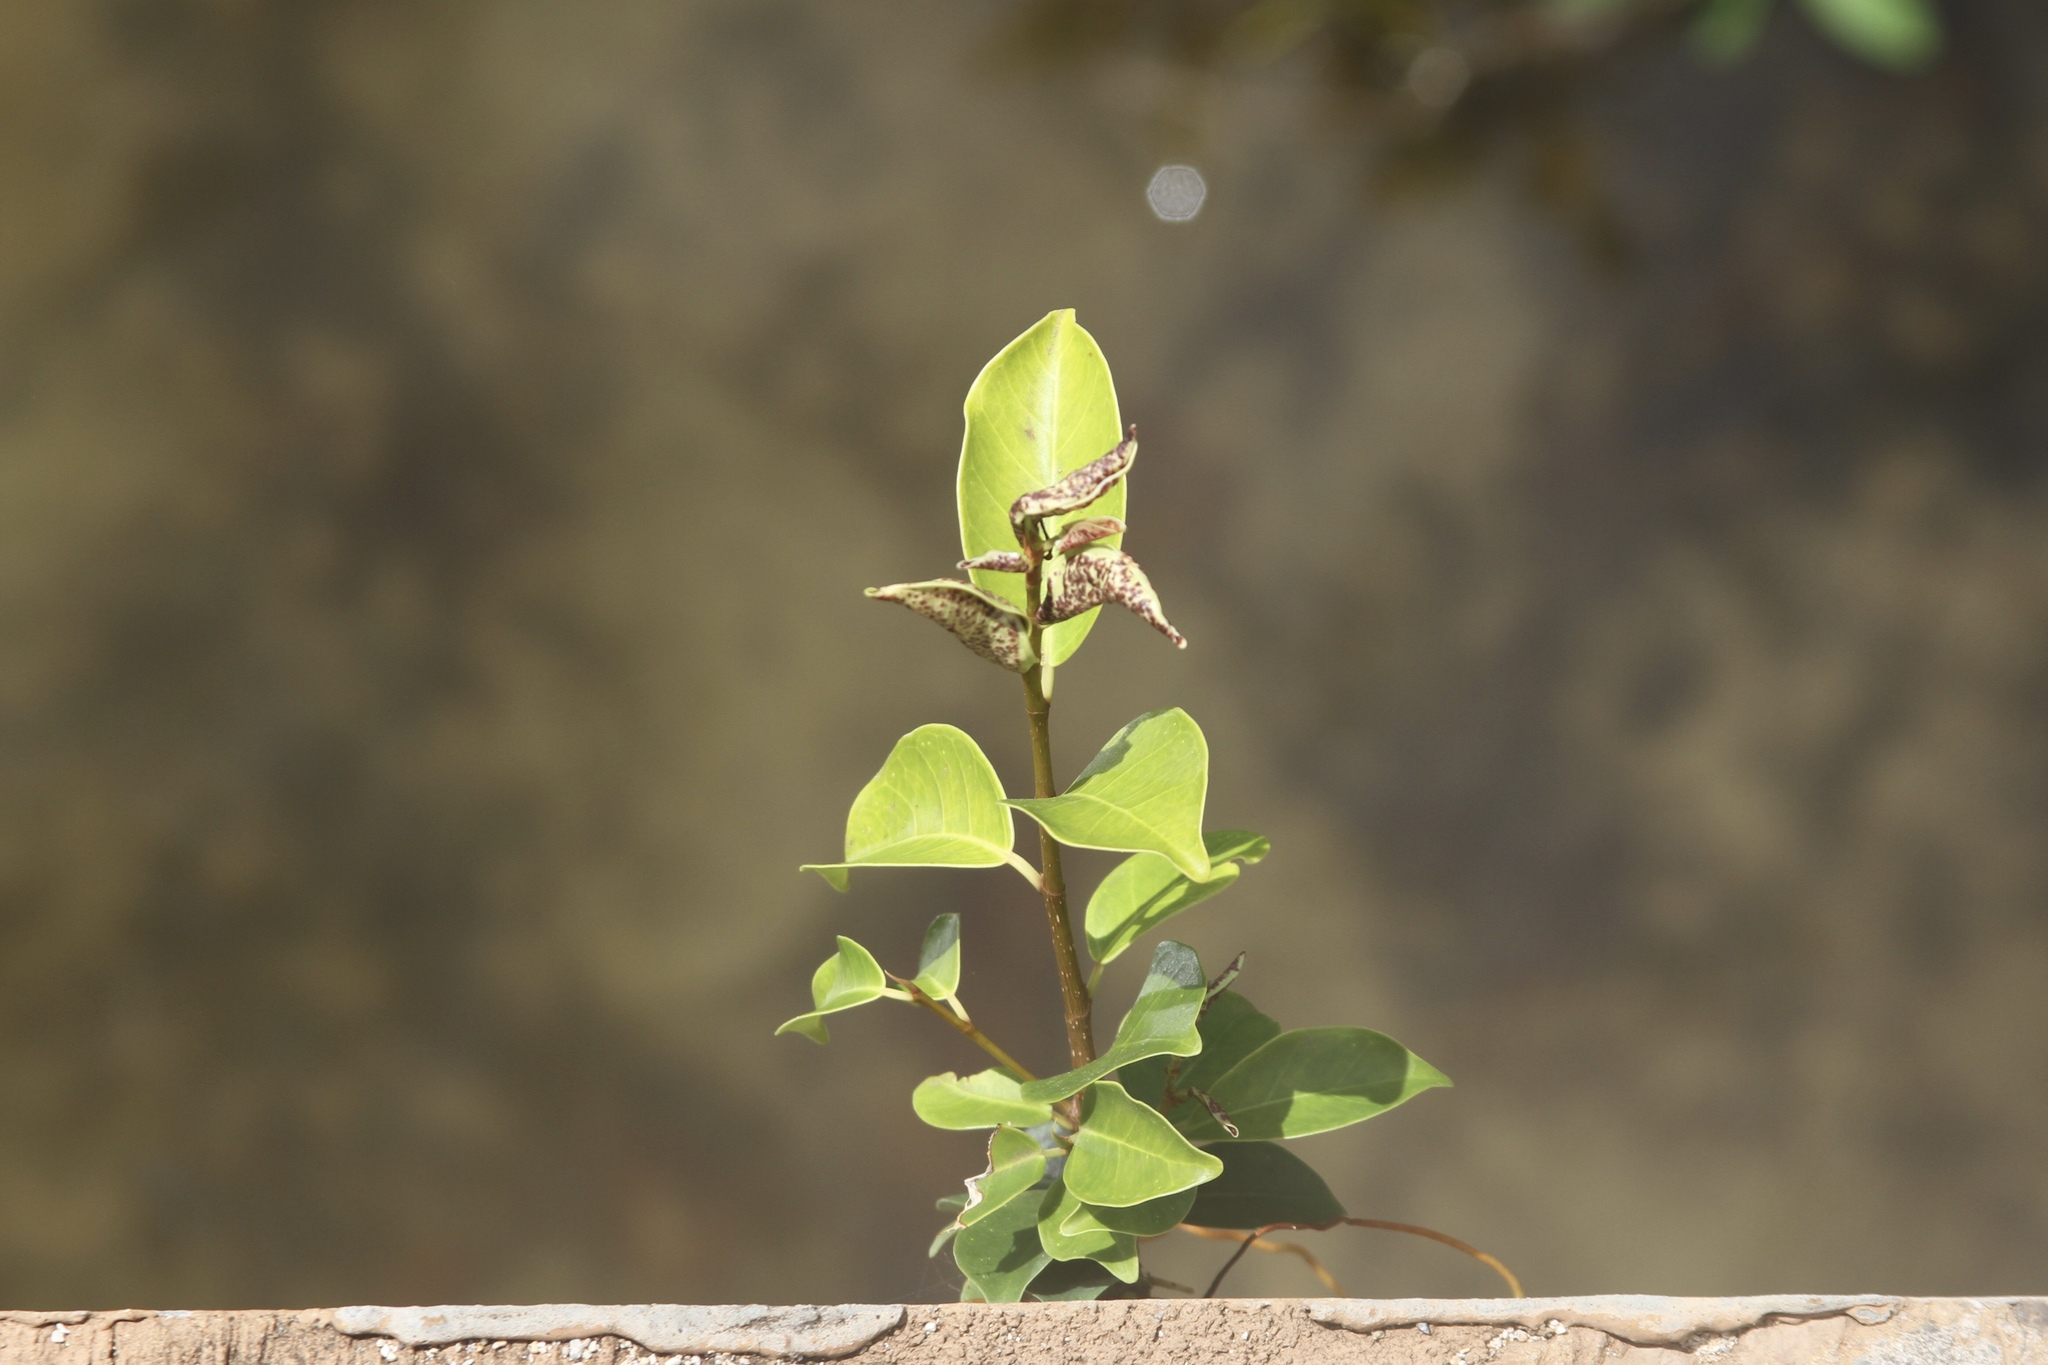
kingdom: Plantae
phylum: Tracheophyta
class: Magnoliopsida
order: Rosales
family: Moraceae
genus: Ficus
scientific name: Ficus microcarpa
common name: Chinese banyan
